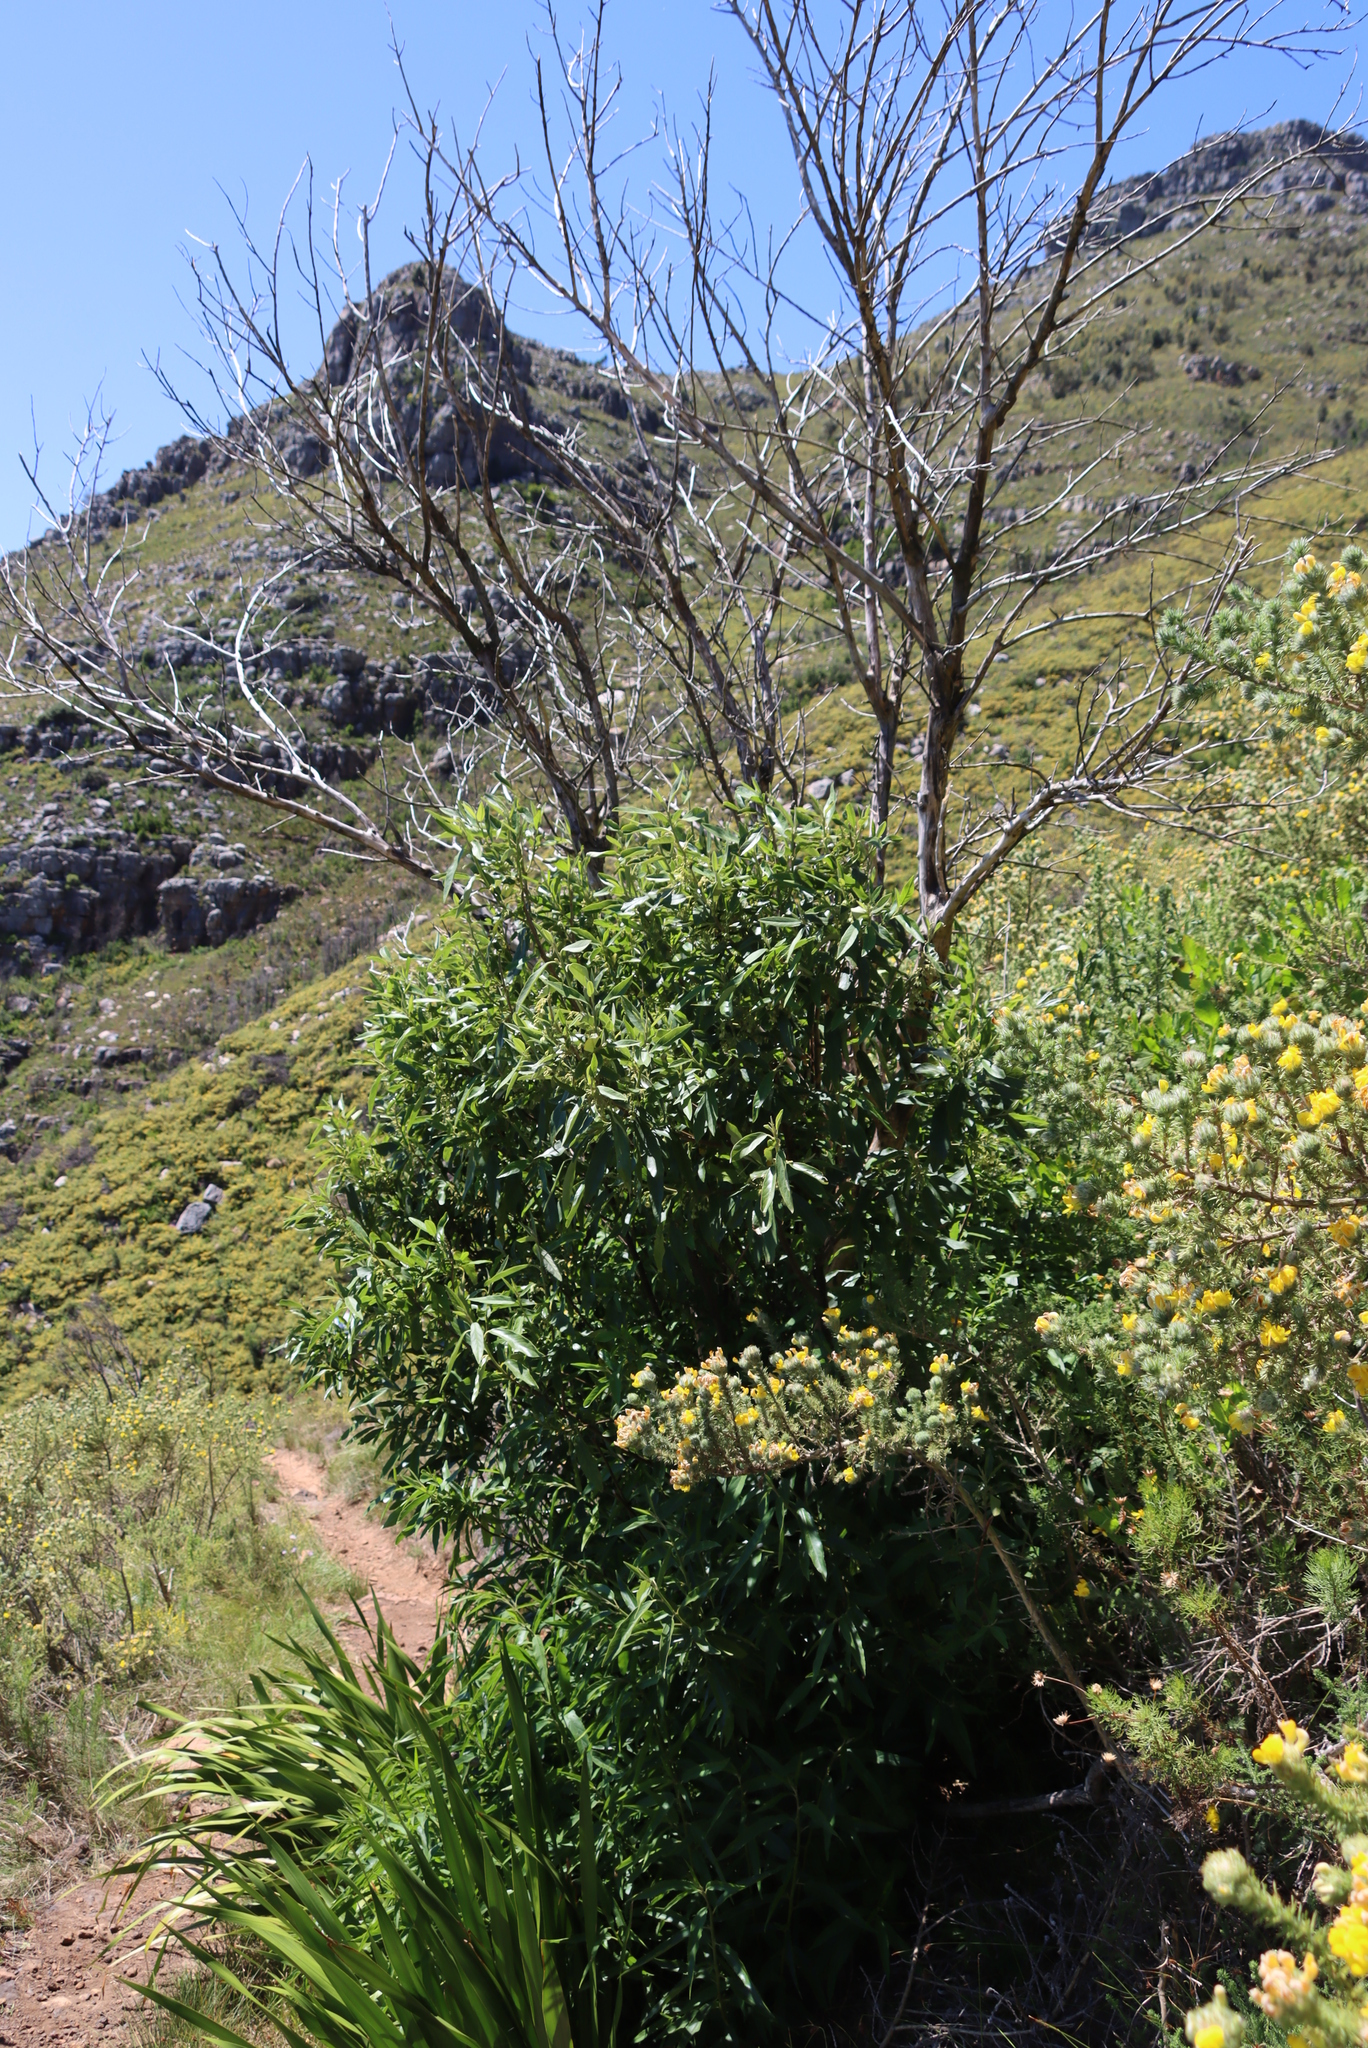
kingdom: Plantae
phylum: Tracheophyta
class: Magnoliopsida
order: Malpighiales
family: Achariaceae
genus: Kiggelaria
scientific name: Kiggelaria africana
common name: Wild peach
